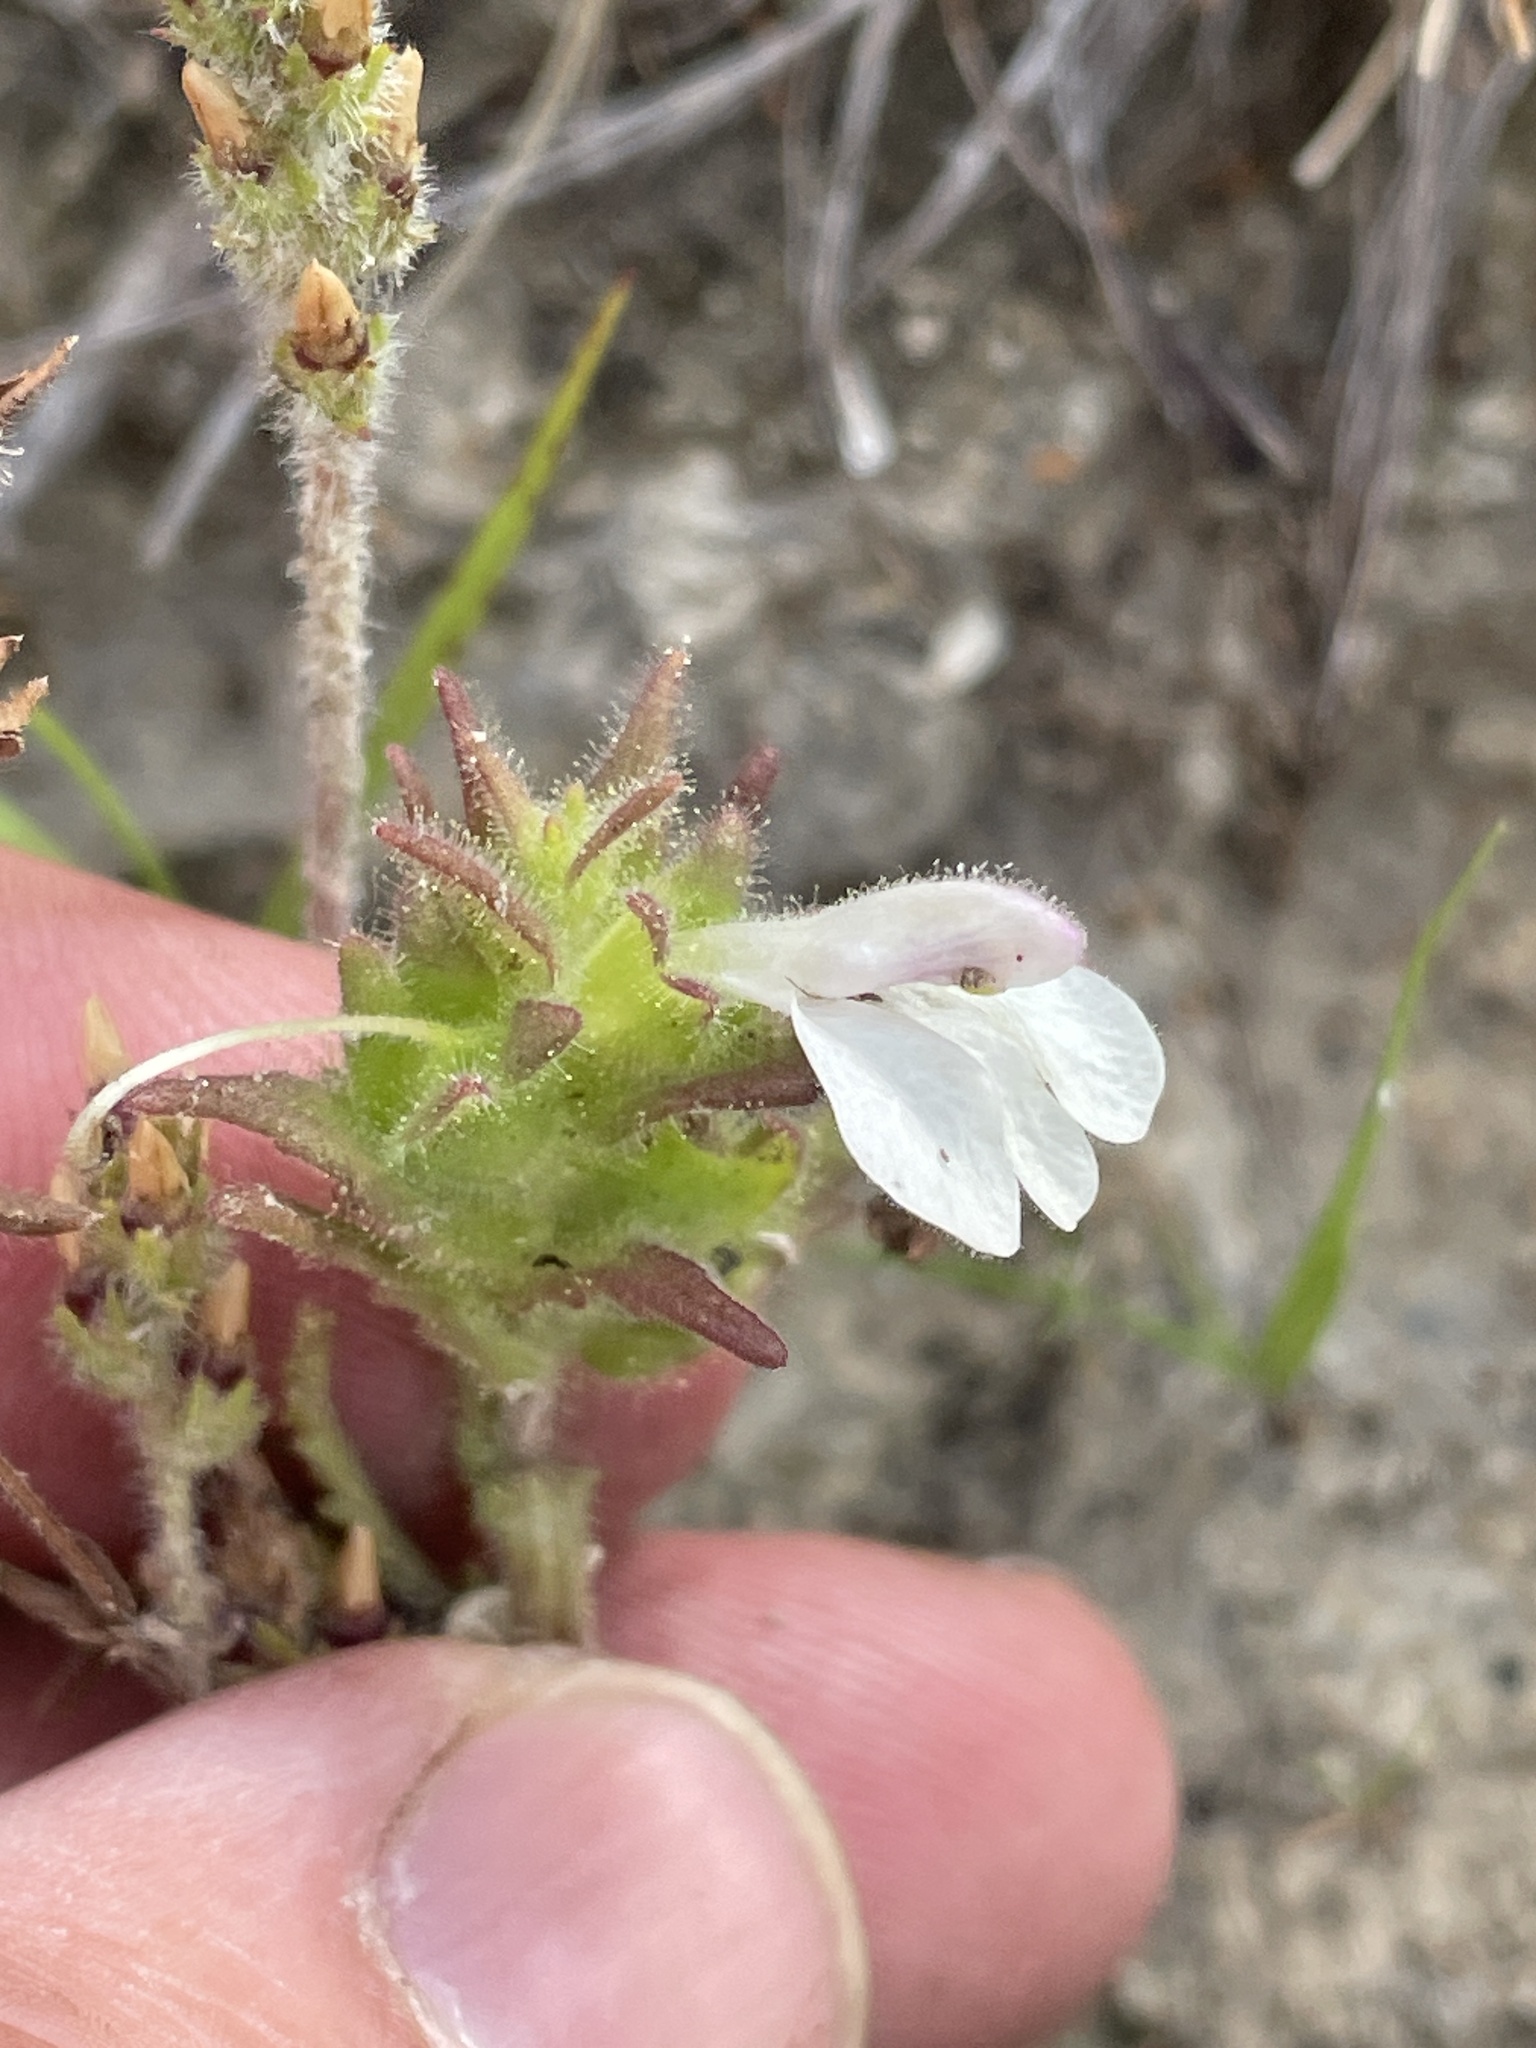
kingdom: Plantae
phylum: Tracheophyta
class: Magnoliopsida
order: Lamiales
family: Orobanchaceae
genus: Bellardia
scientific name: Bellardia trixago
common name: Mediterranean lineseed
